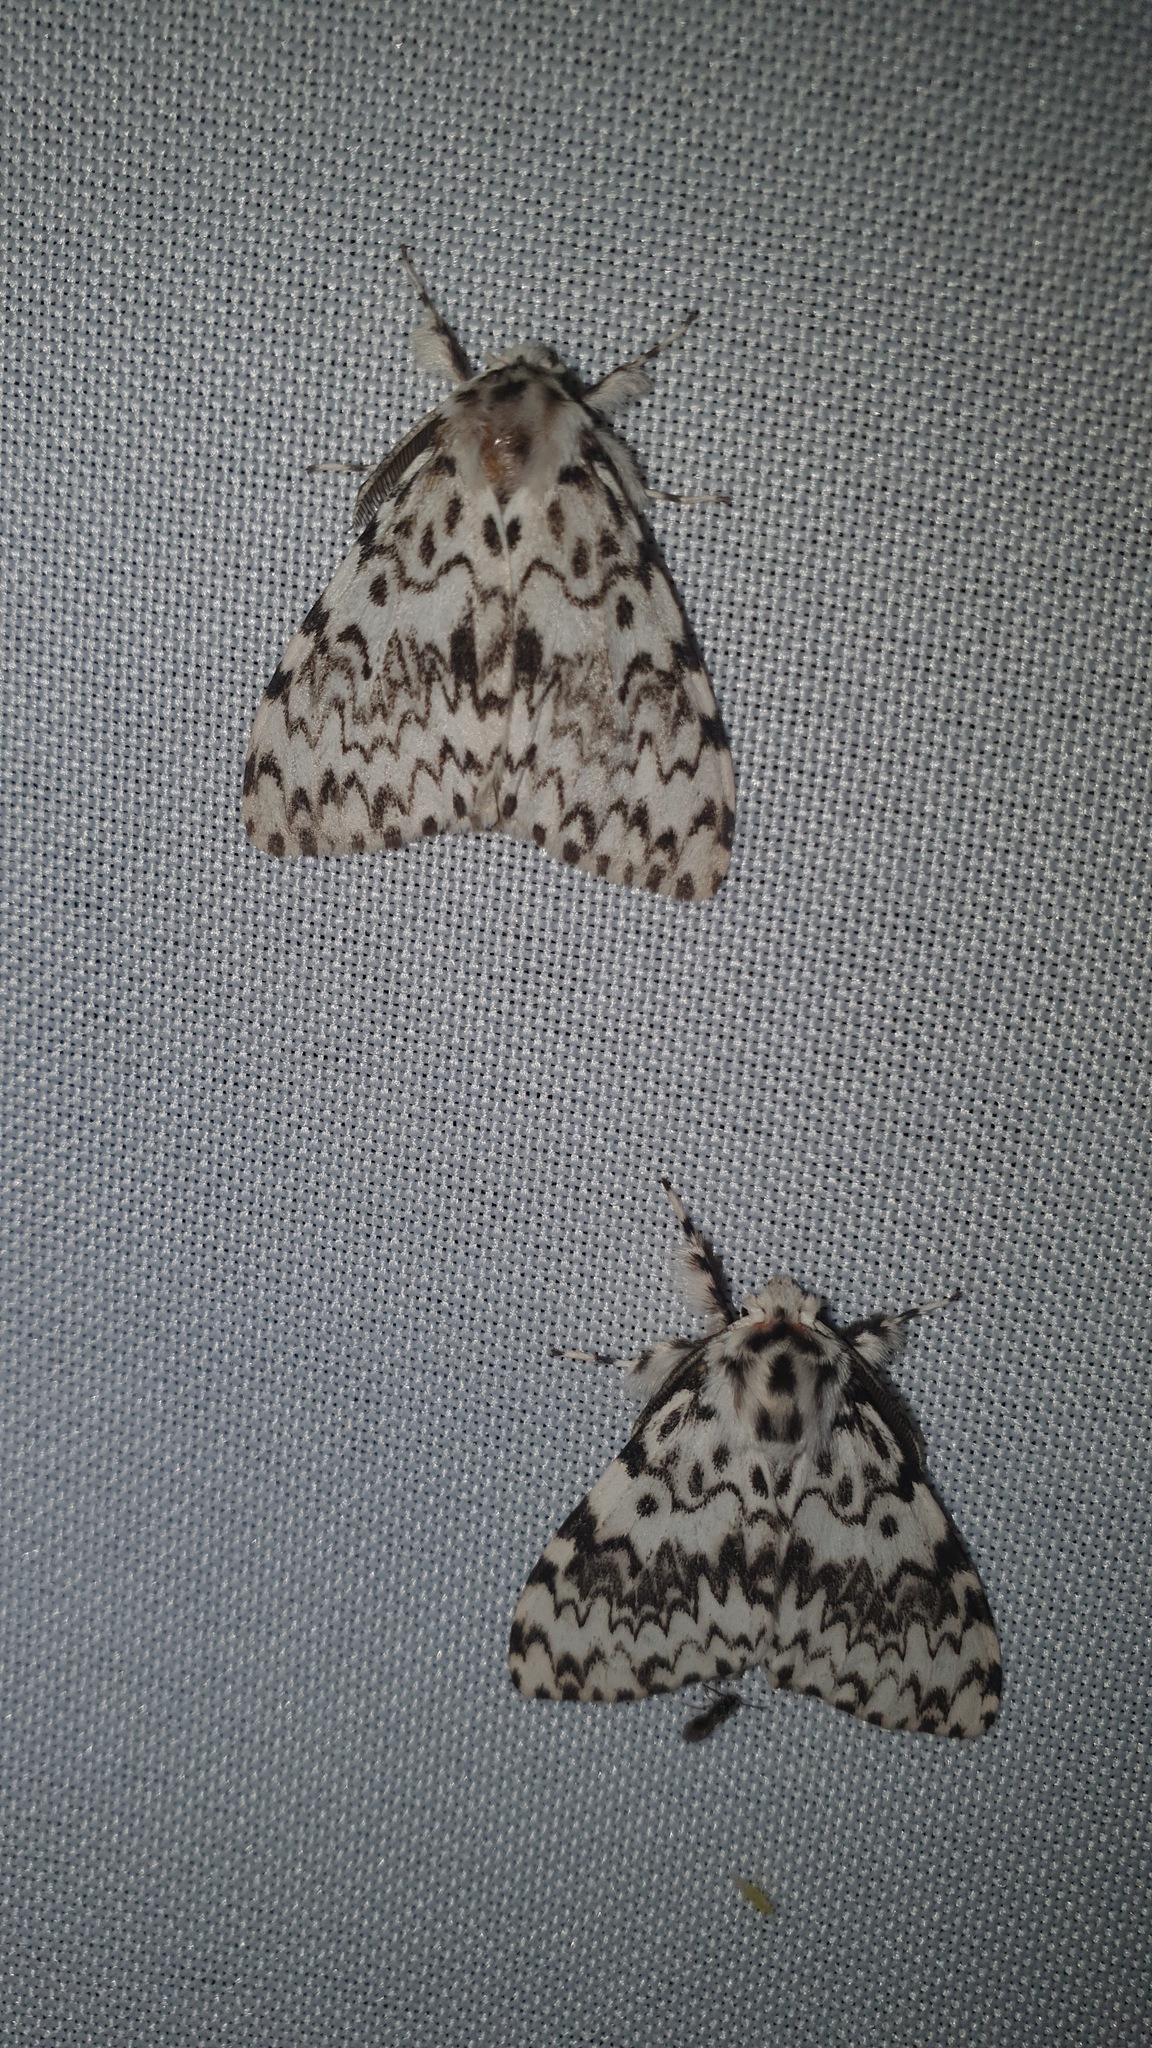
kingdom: Animalia
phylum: Arthropoda
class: Insecta
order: Lepidoptera
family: Erebidae
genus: Lymantria
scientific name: Lymantria monacha
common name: Black arches
